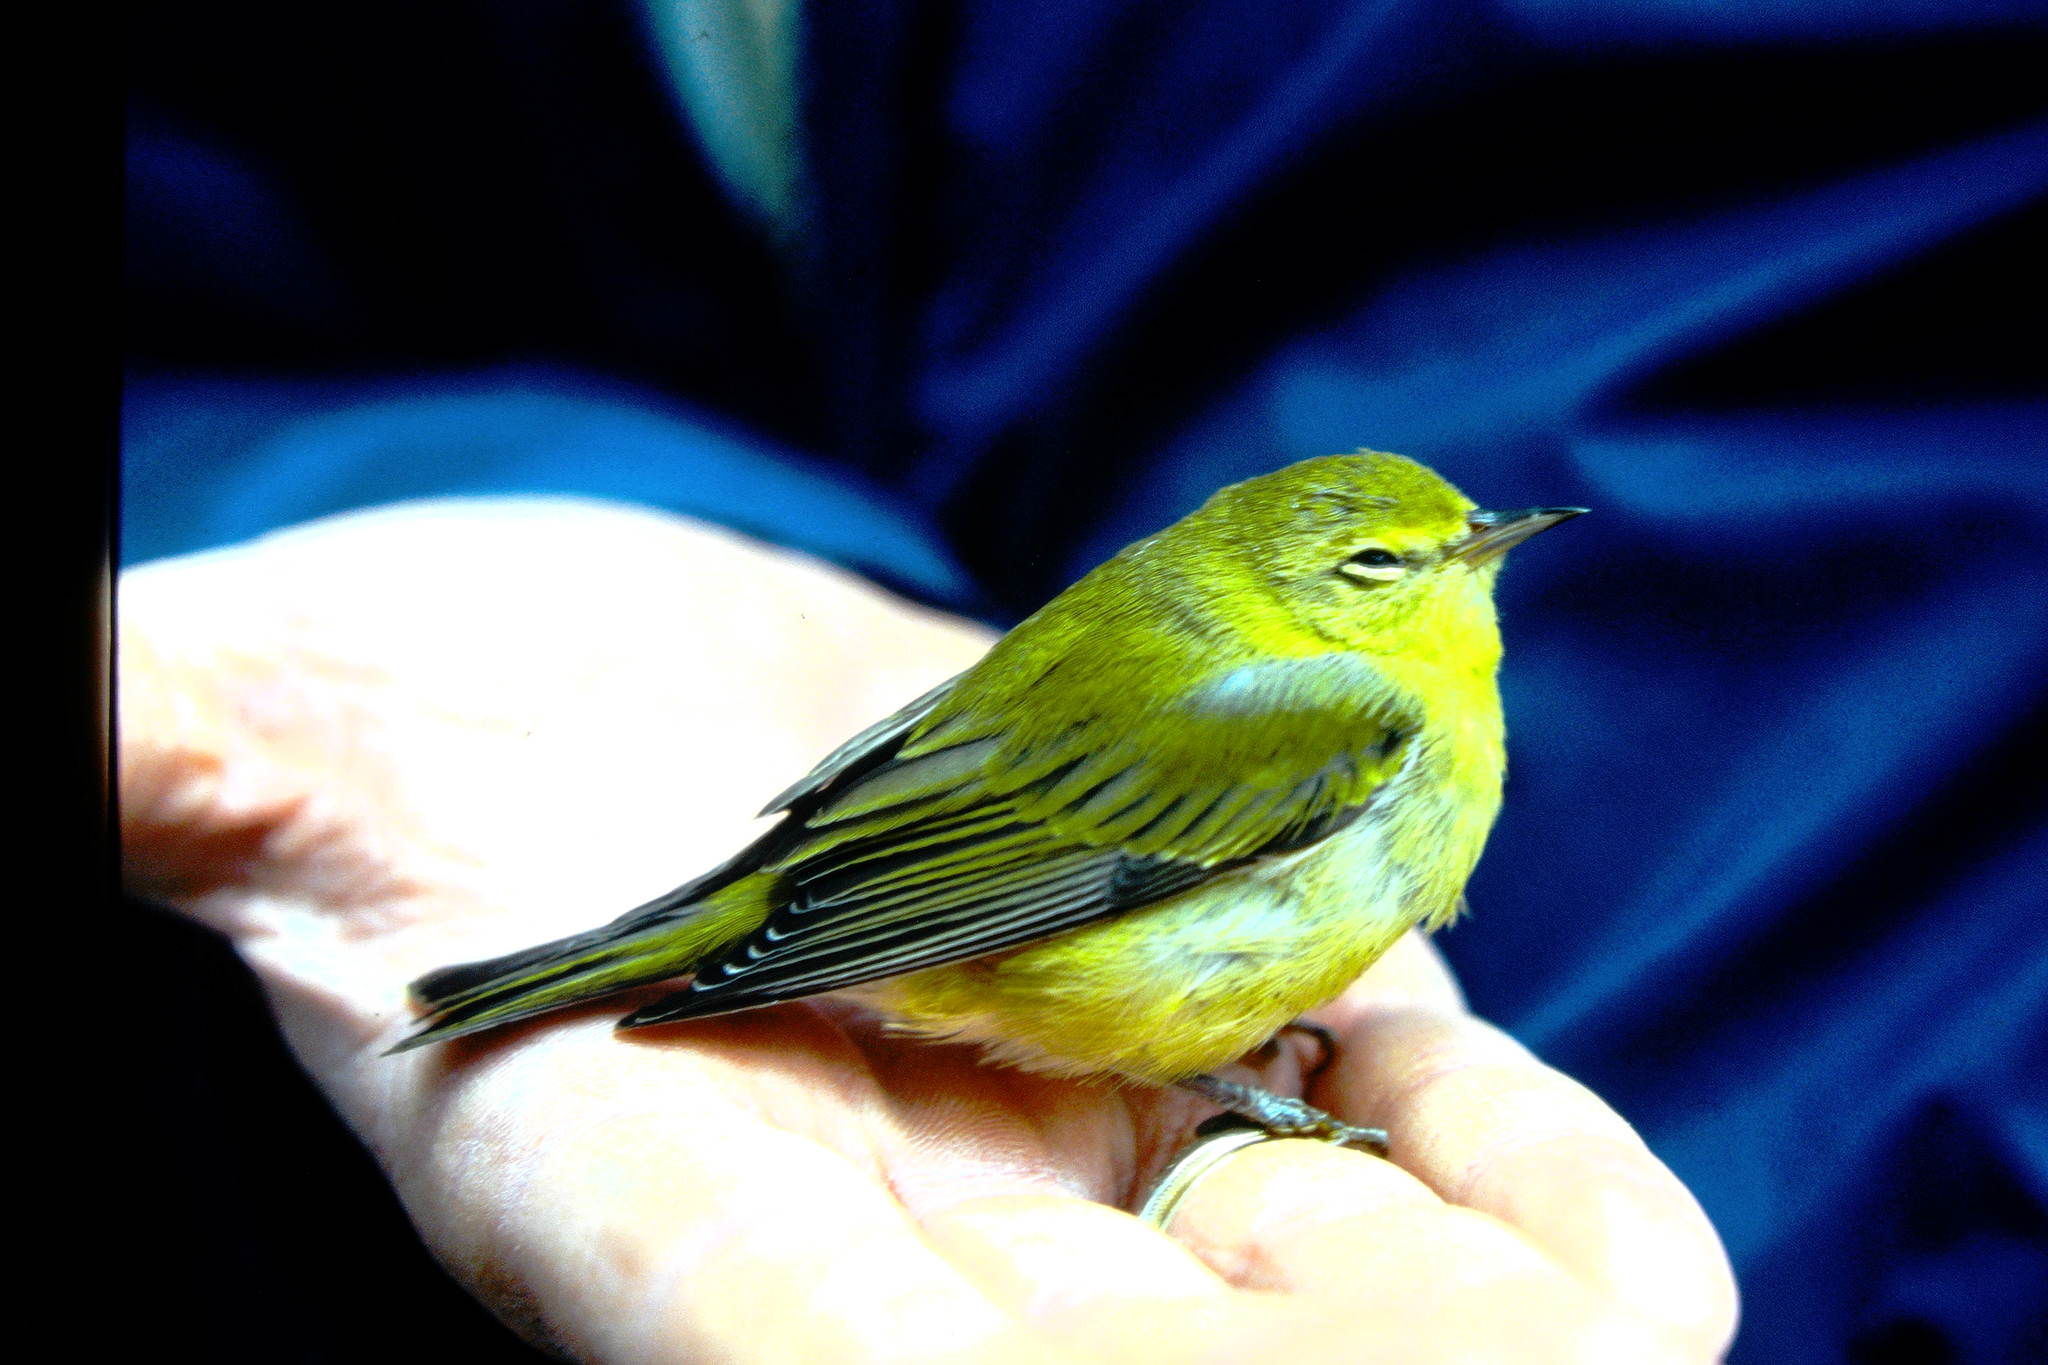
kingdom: Animalia
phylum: Chordata
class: Aves
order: Passeriformes
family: Parulidae
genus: Leiothlypis
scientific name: Leiothlypis peregrina
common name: Tennessee warbler
